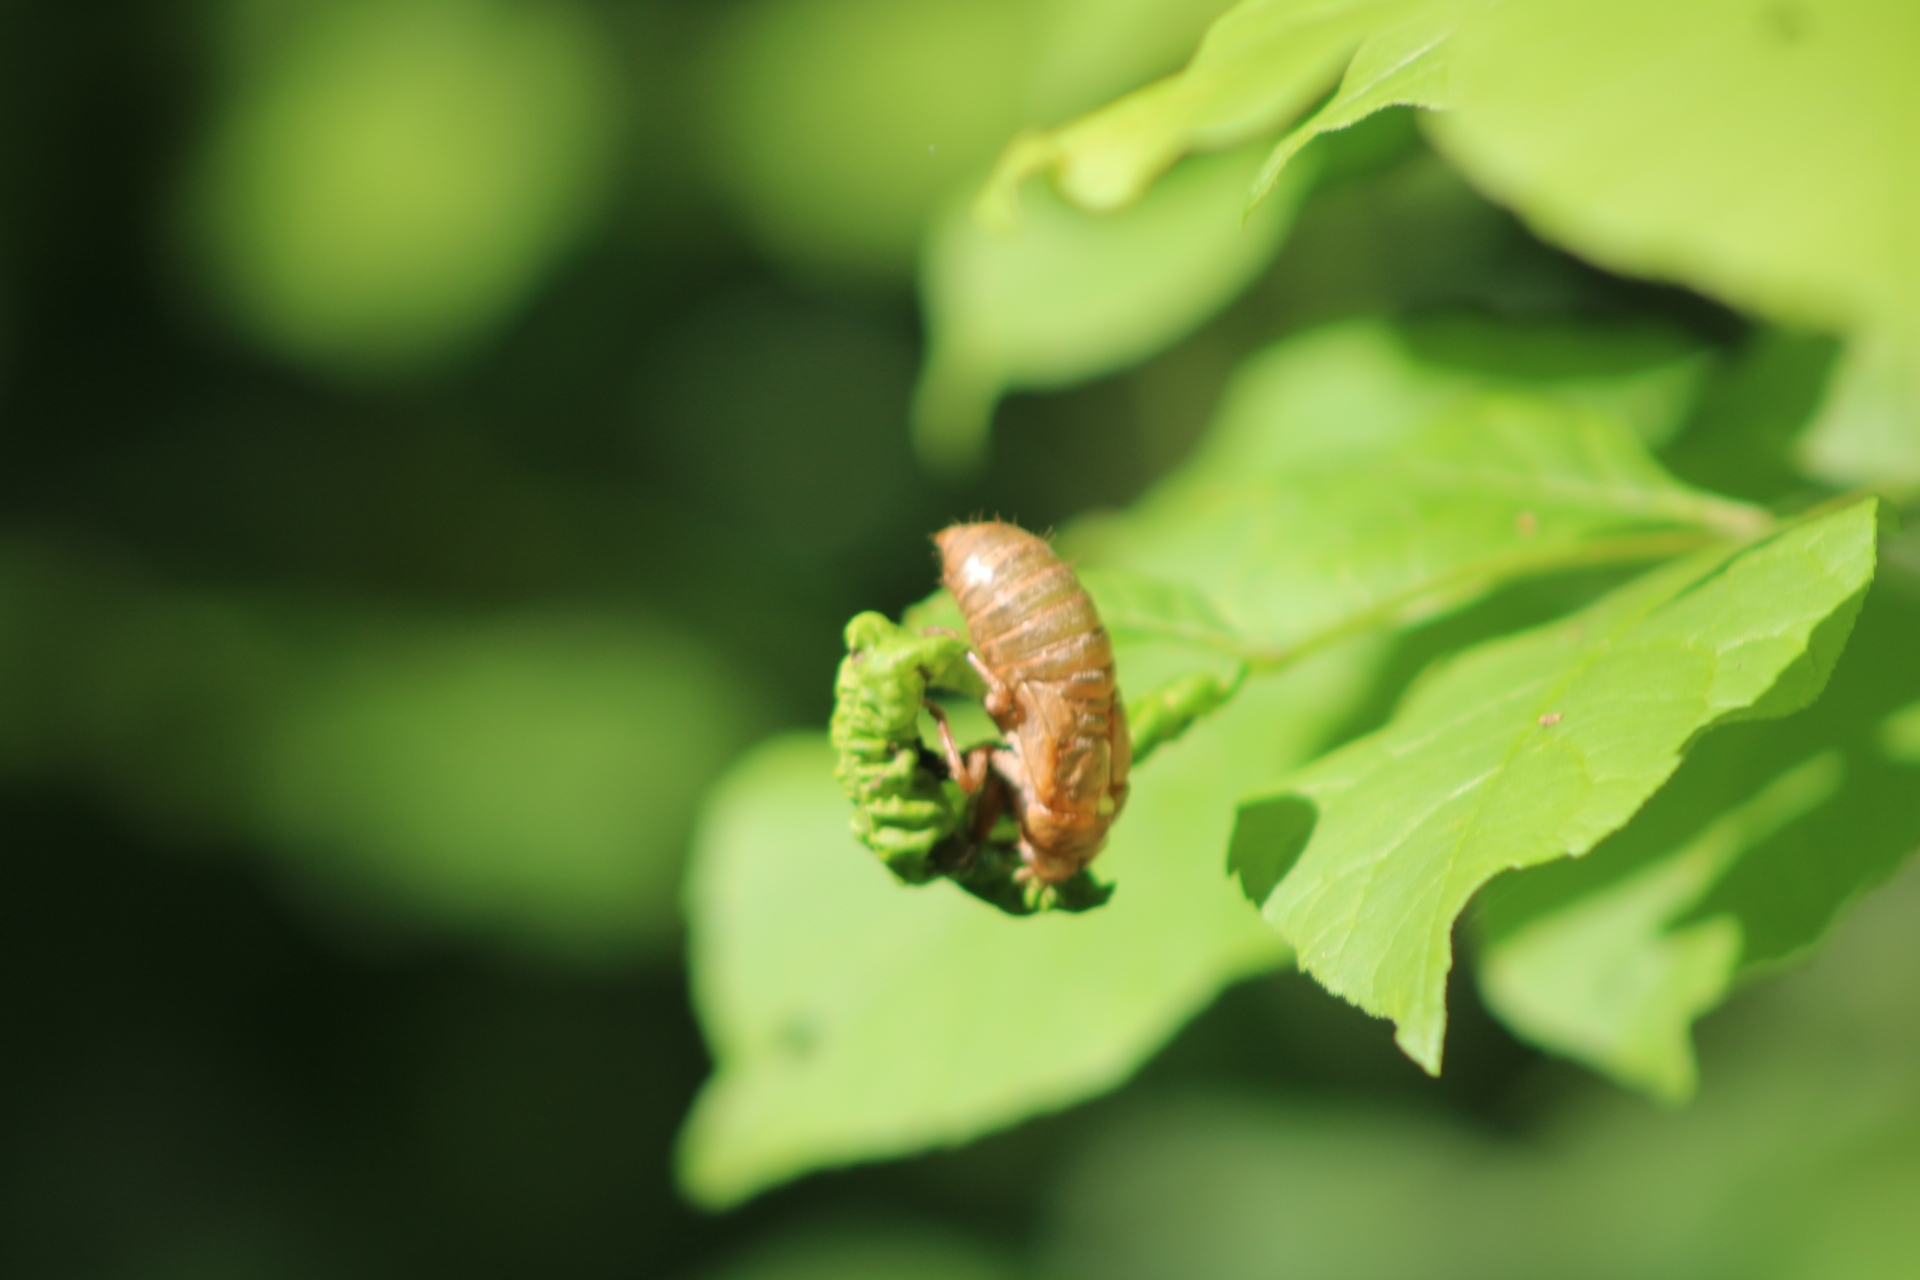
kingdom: Animalia
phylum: Arthropoda
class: Insecta
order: Hemiptera
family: Cicadidae
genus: Magicicada
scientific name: Magicicada
